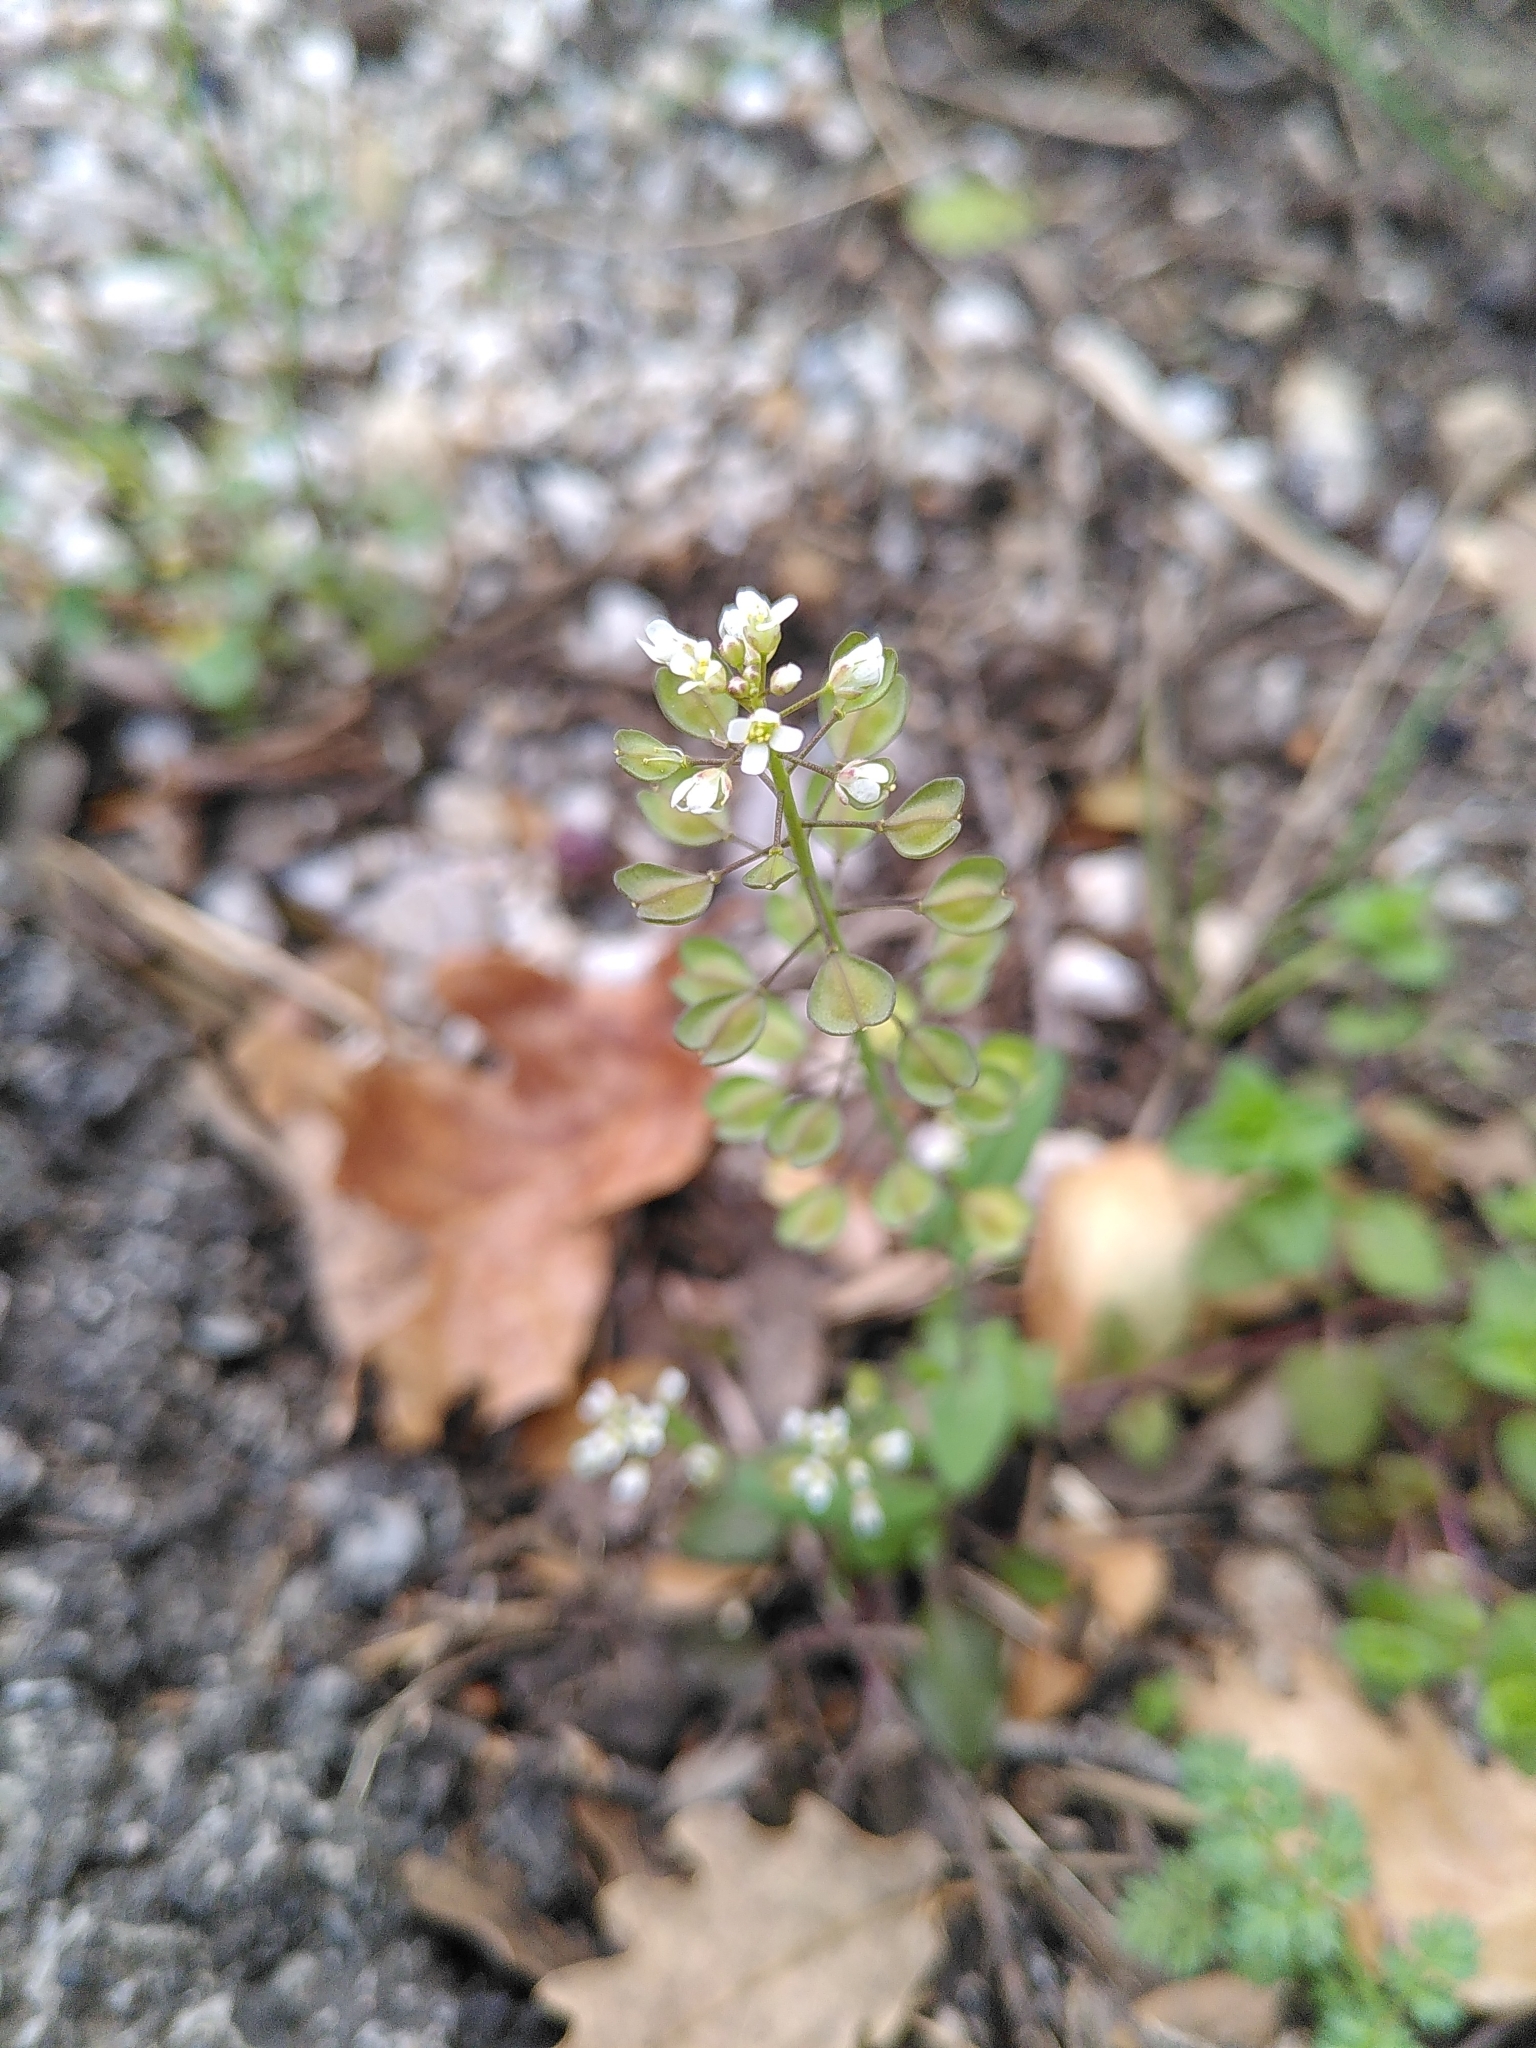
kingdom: Plantae
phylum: Tracheophyta
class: Magnoliopsida
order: Brassicales
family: Brassicaceae
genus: Noccaea
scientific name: Noccaea perfoliata
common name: Perfoliate pennycress
